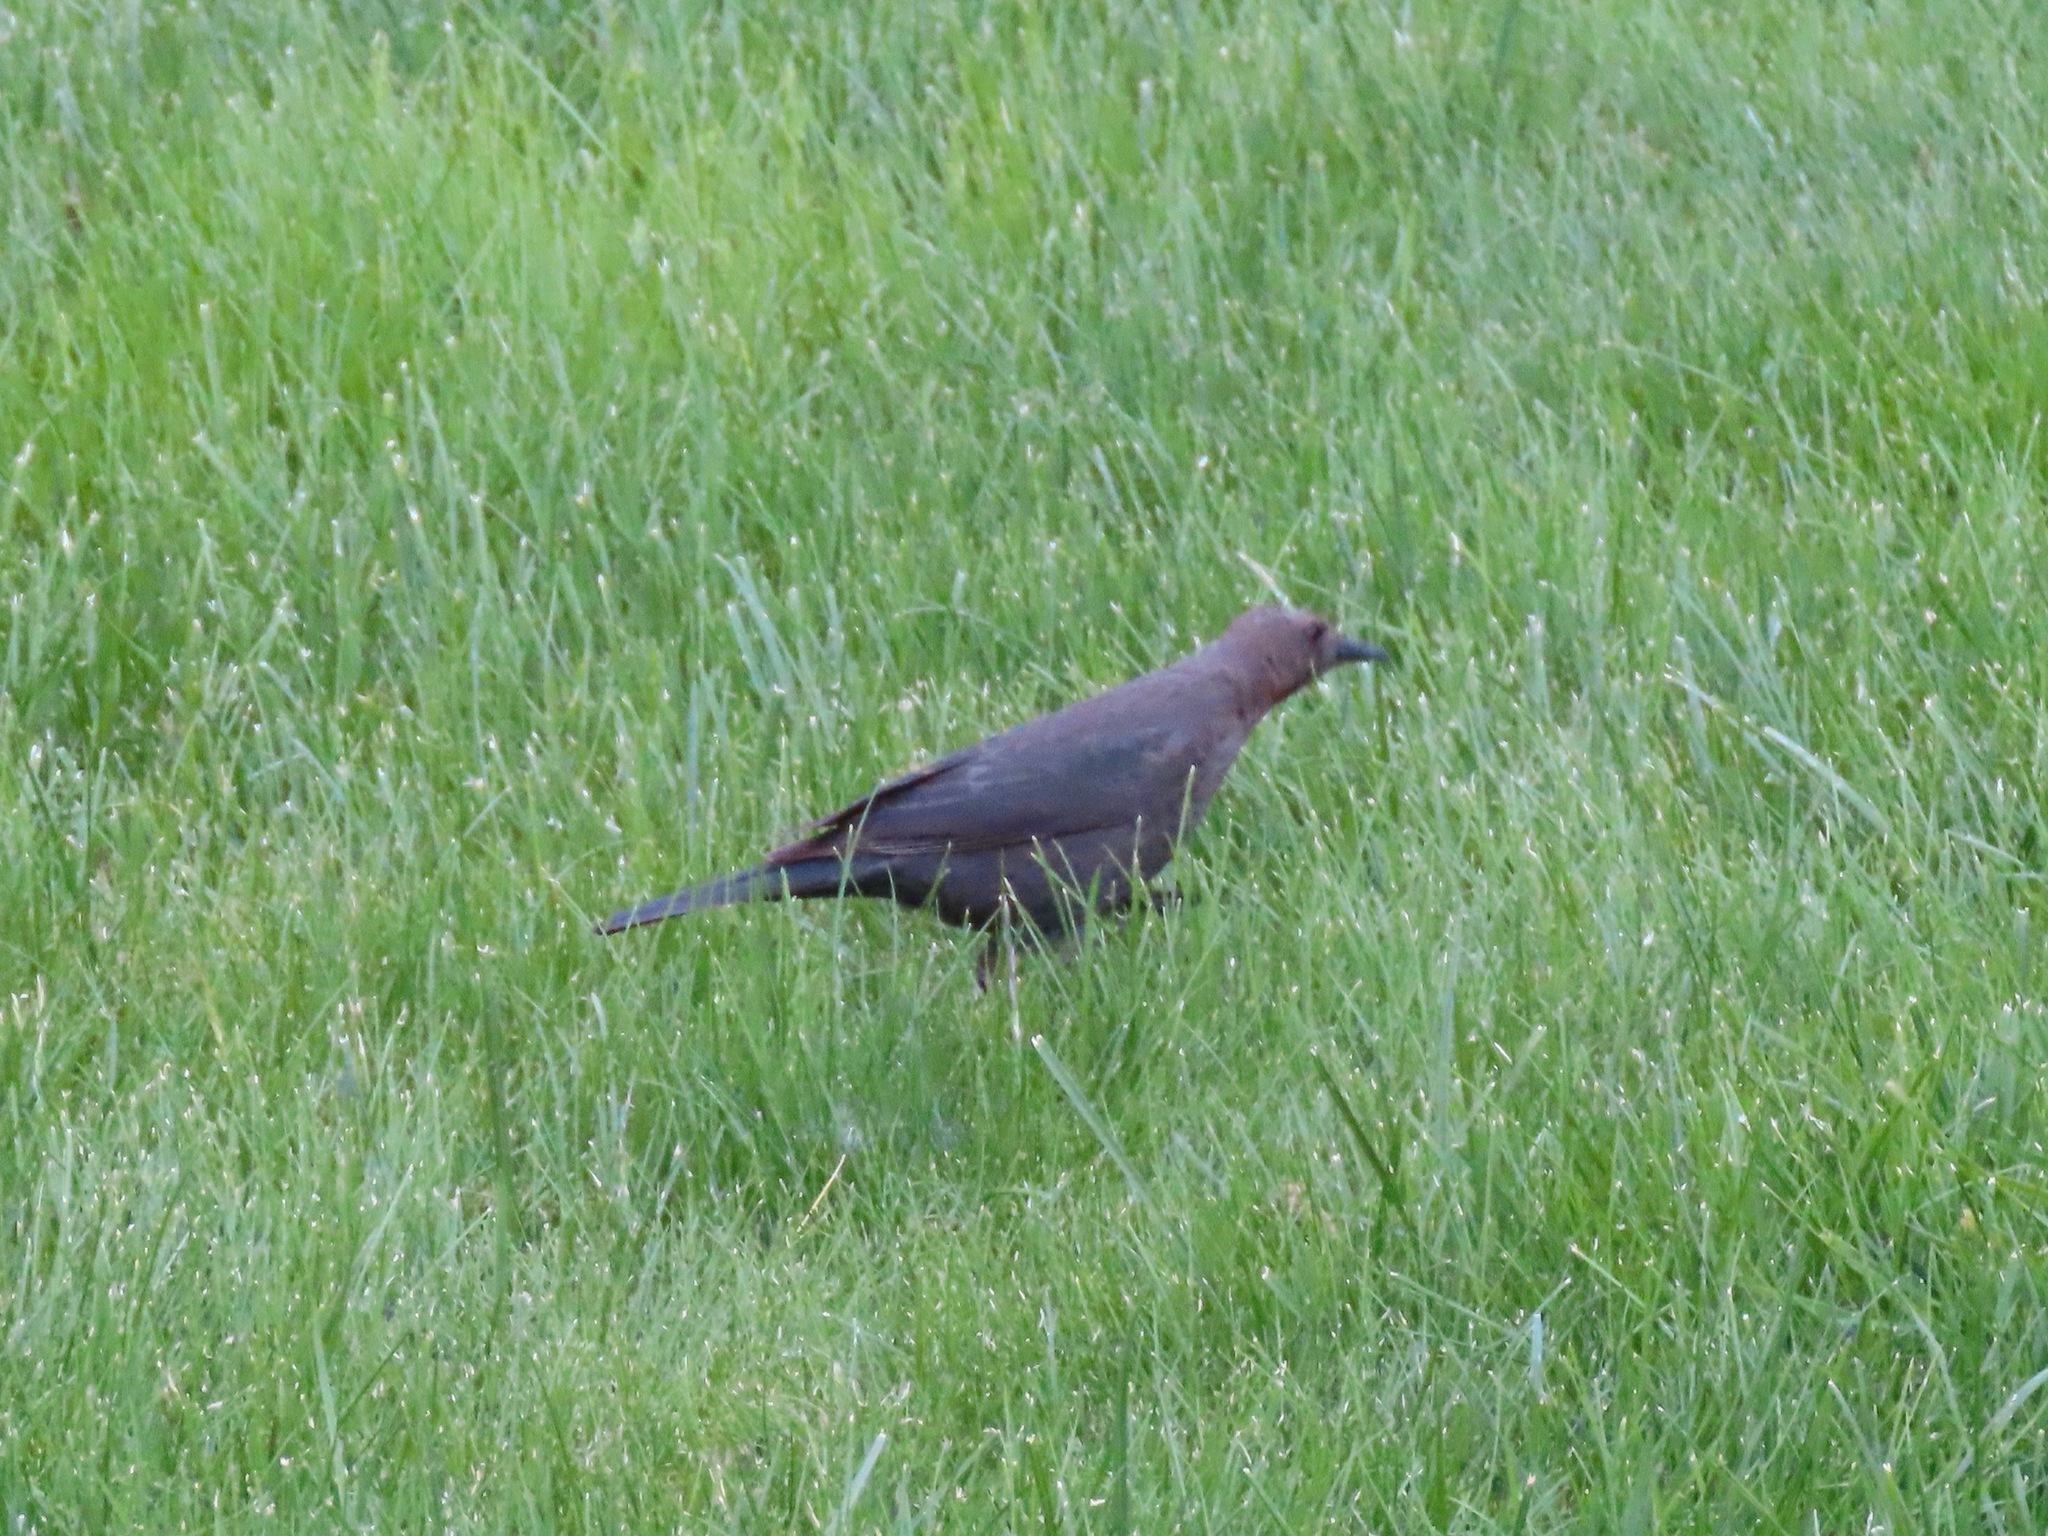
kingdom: Animalia
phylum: Chordata
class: Aves
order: Passeriformes
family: Icteridae
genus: Euphagus
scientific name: Euphagus cyanocephalus
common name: Brewer's blackbird
